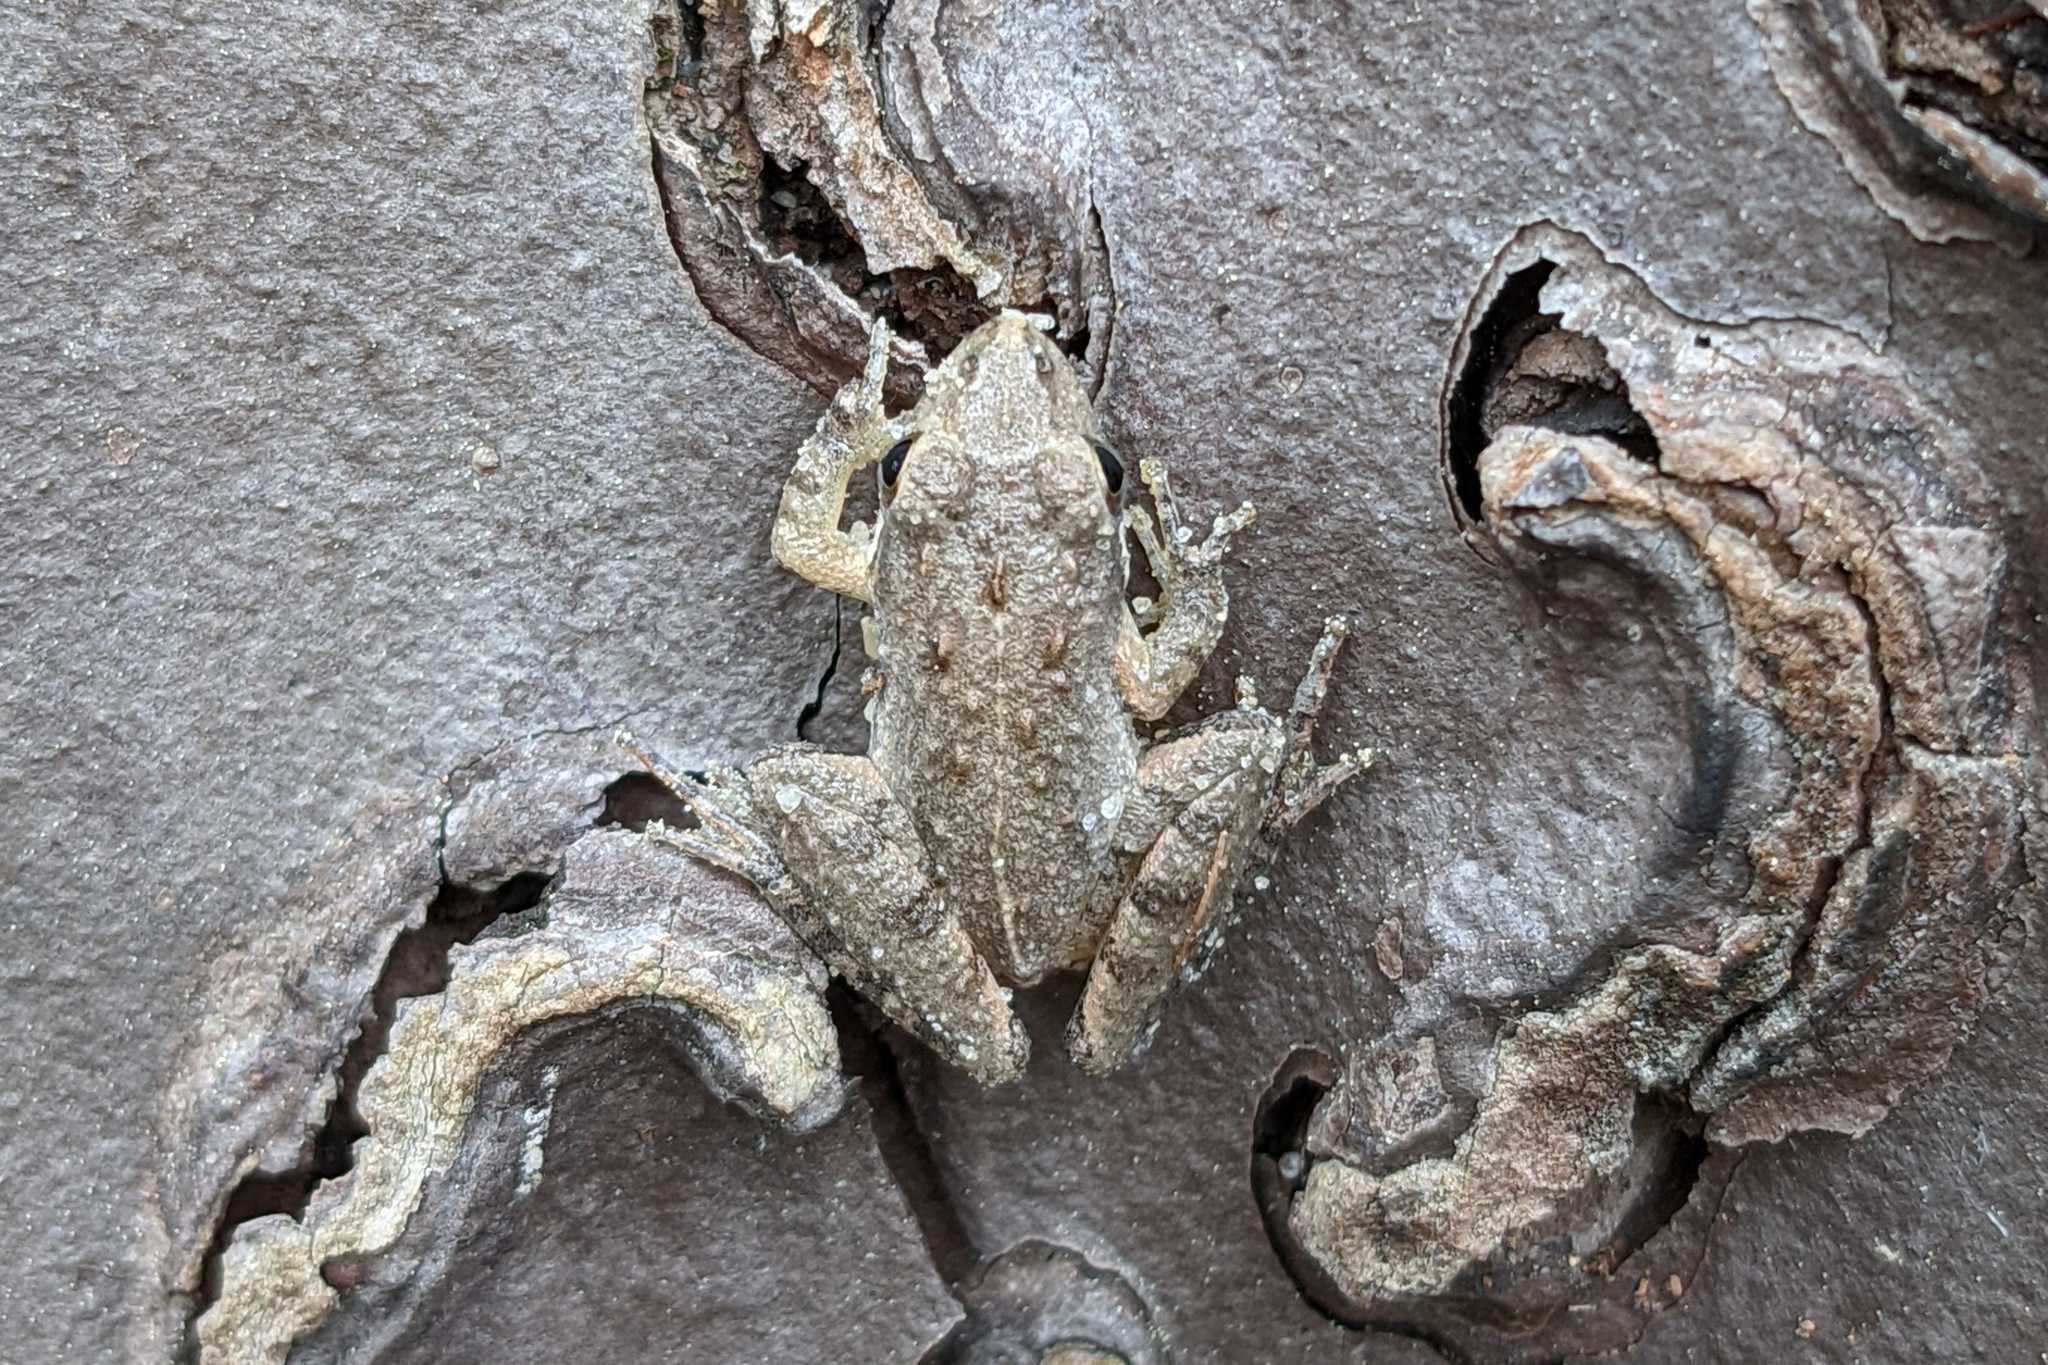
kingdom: Animalia
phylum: Chordata
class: Amphibia
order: Anura
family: Hylidae
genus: Acris
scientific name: Acris gryllus
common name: Southern cricket frog
